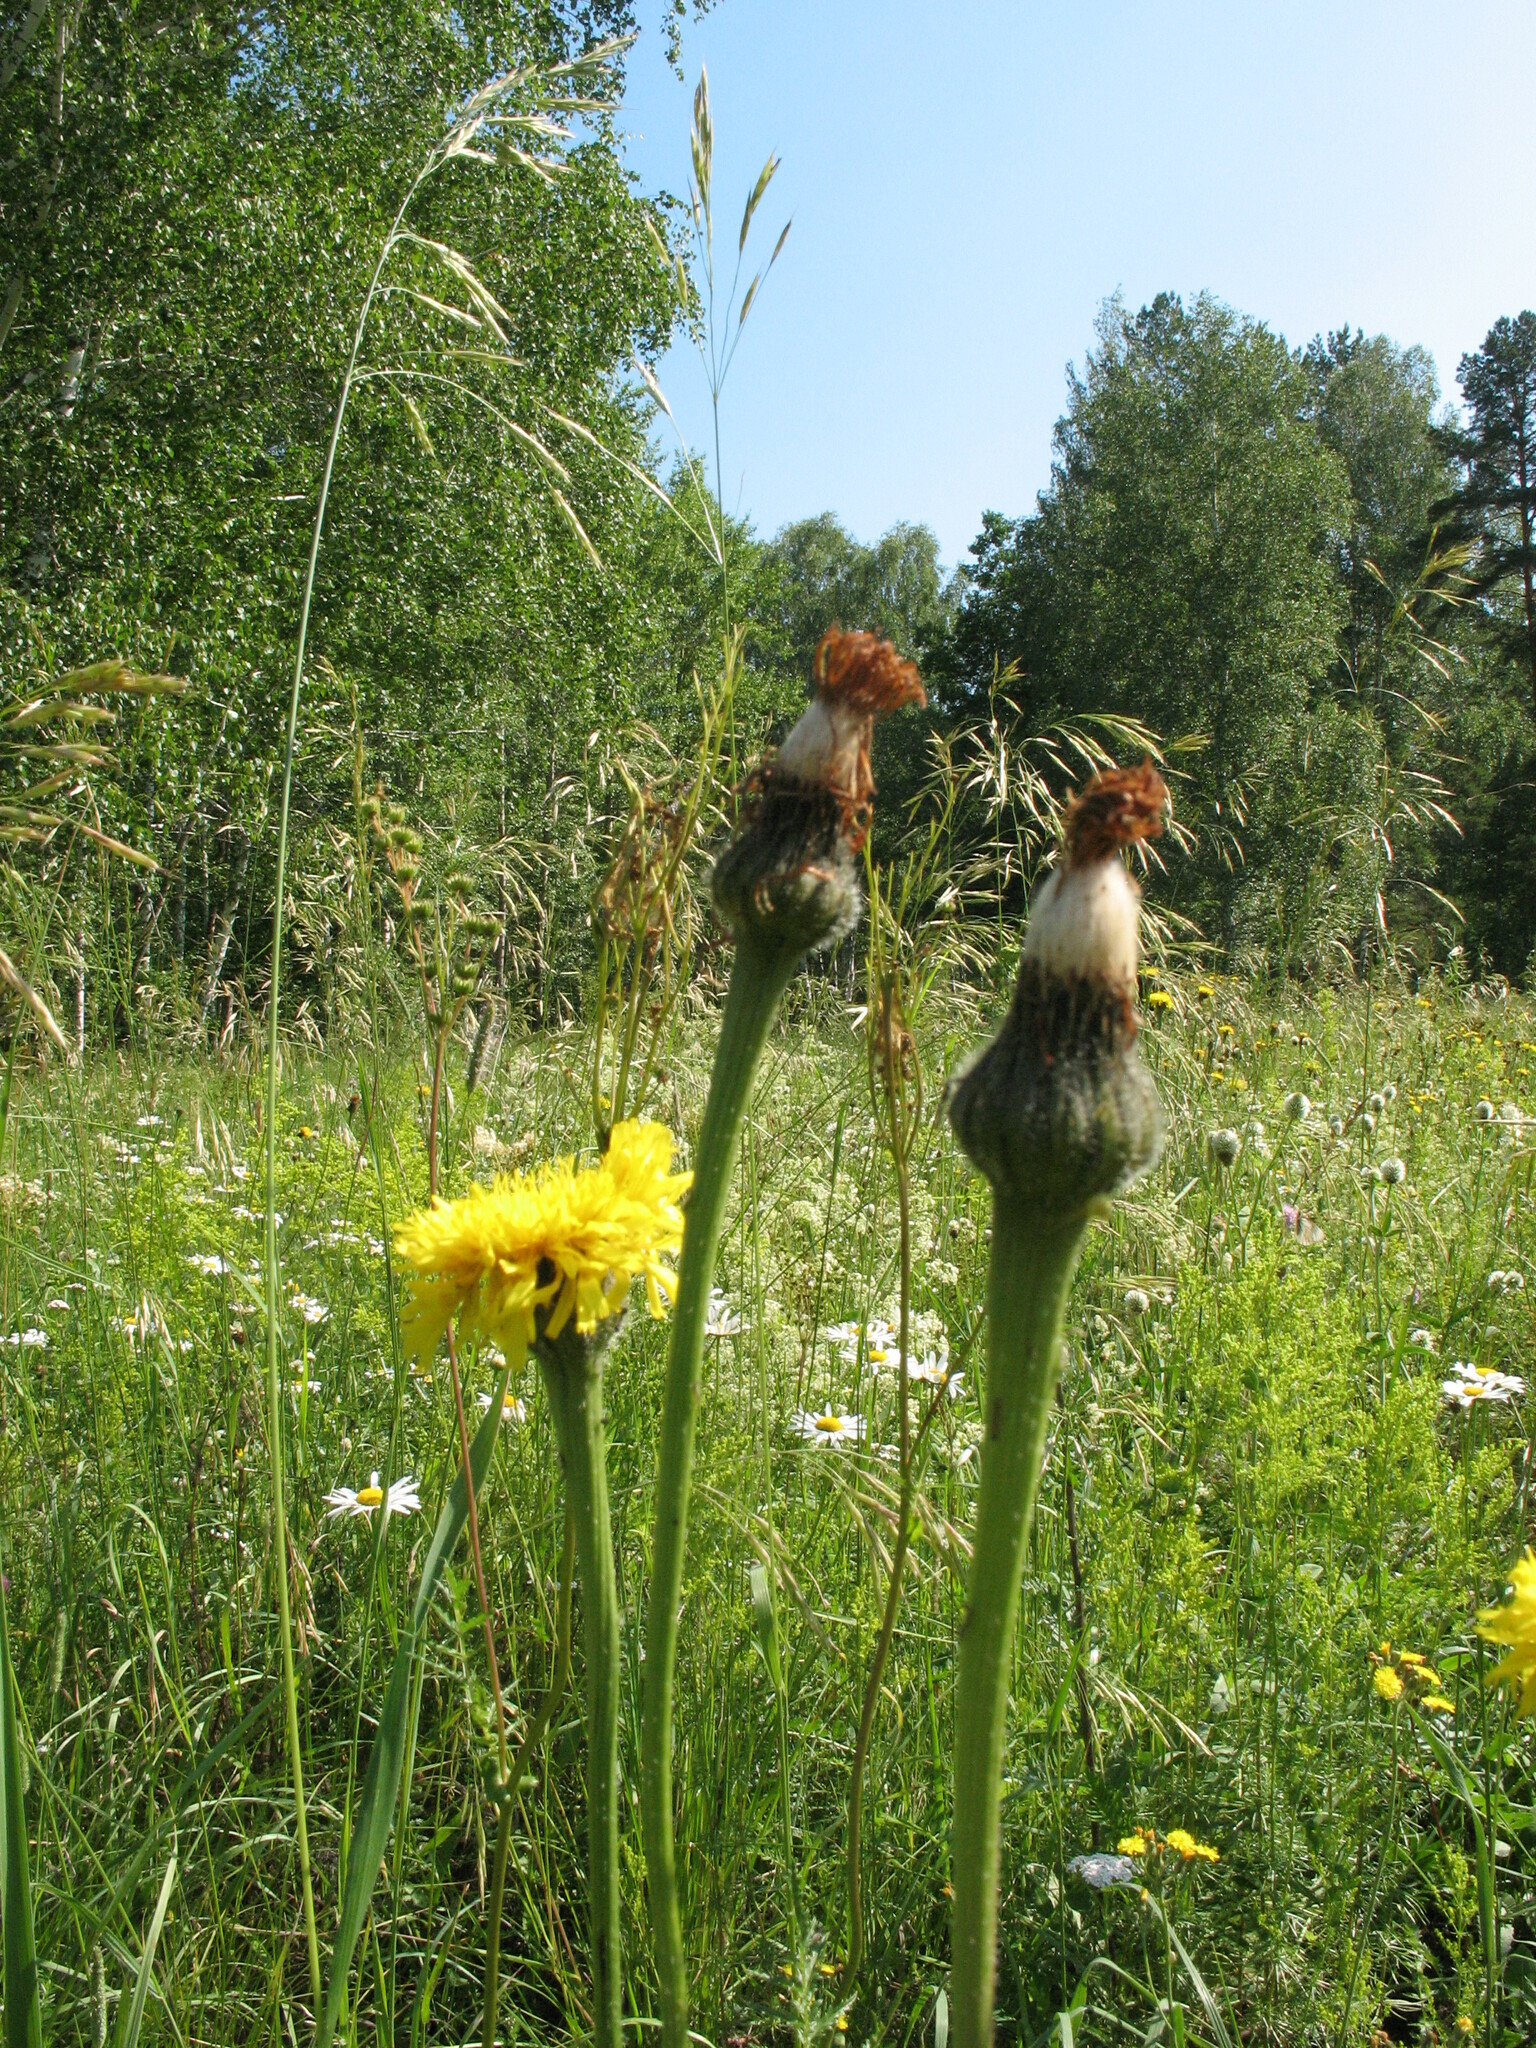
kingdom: Plantae
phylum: Tracheophyta
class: Magnoliopsida
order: Asterales
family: Asteraceae
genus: Trommsdorffia
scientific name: Trommsdorffia maculata
